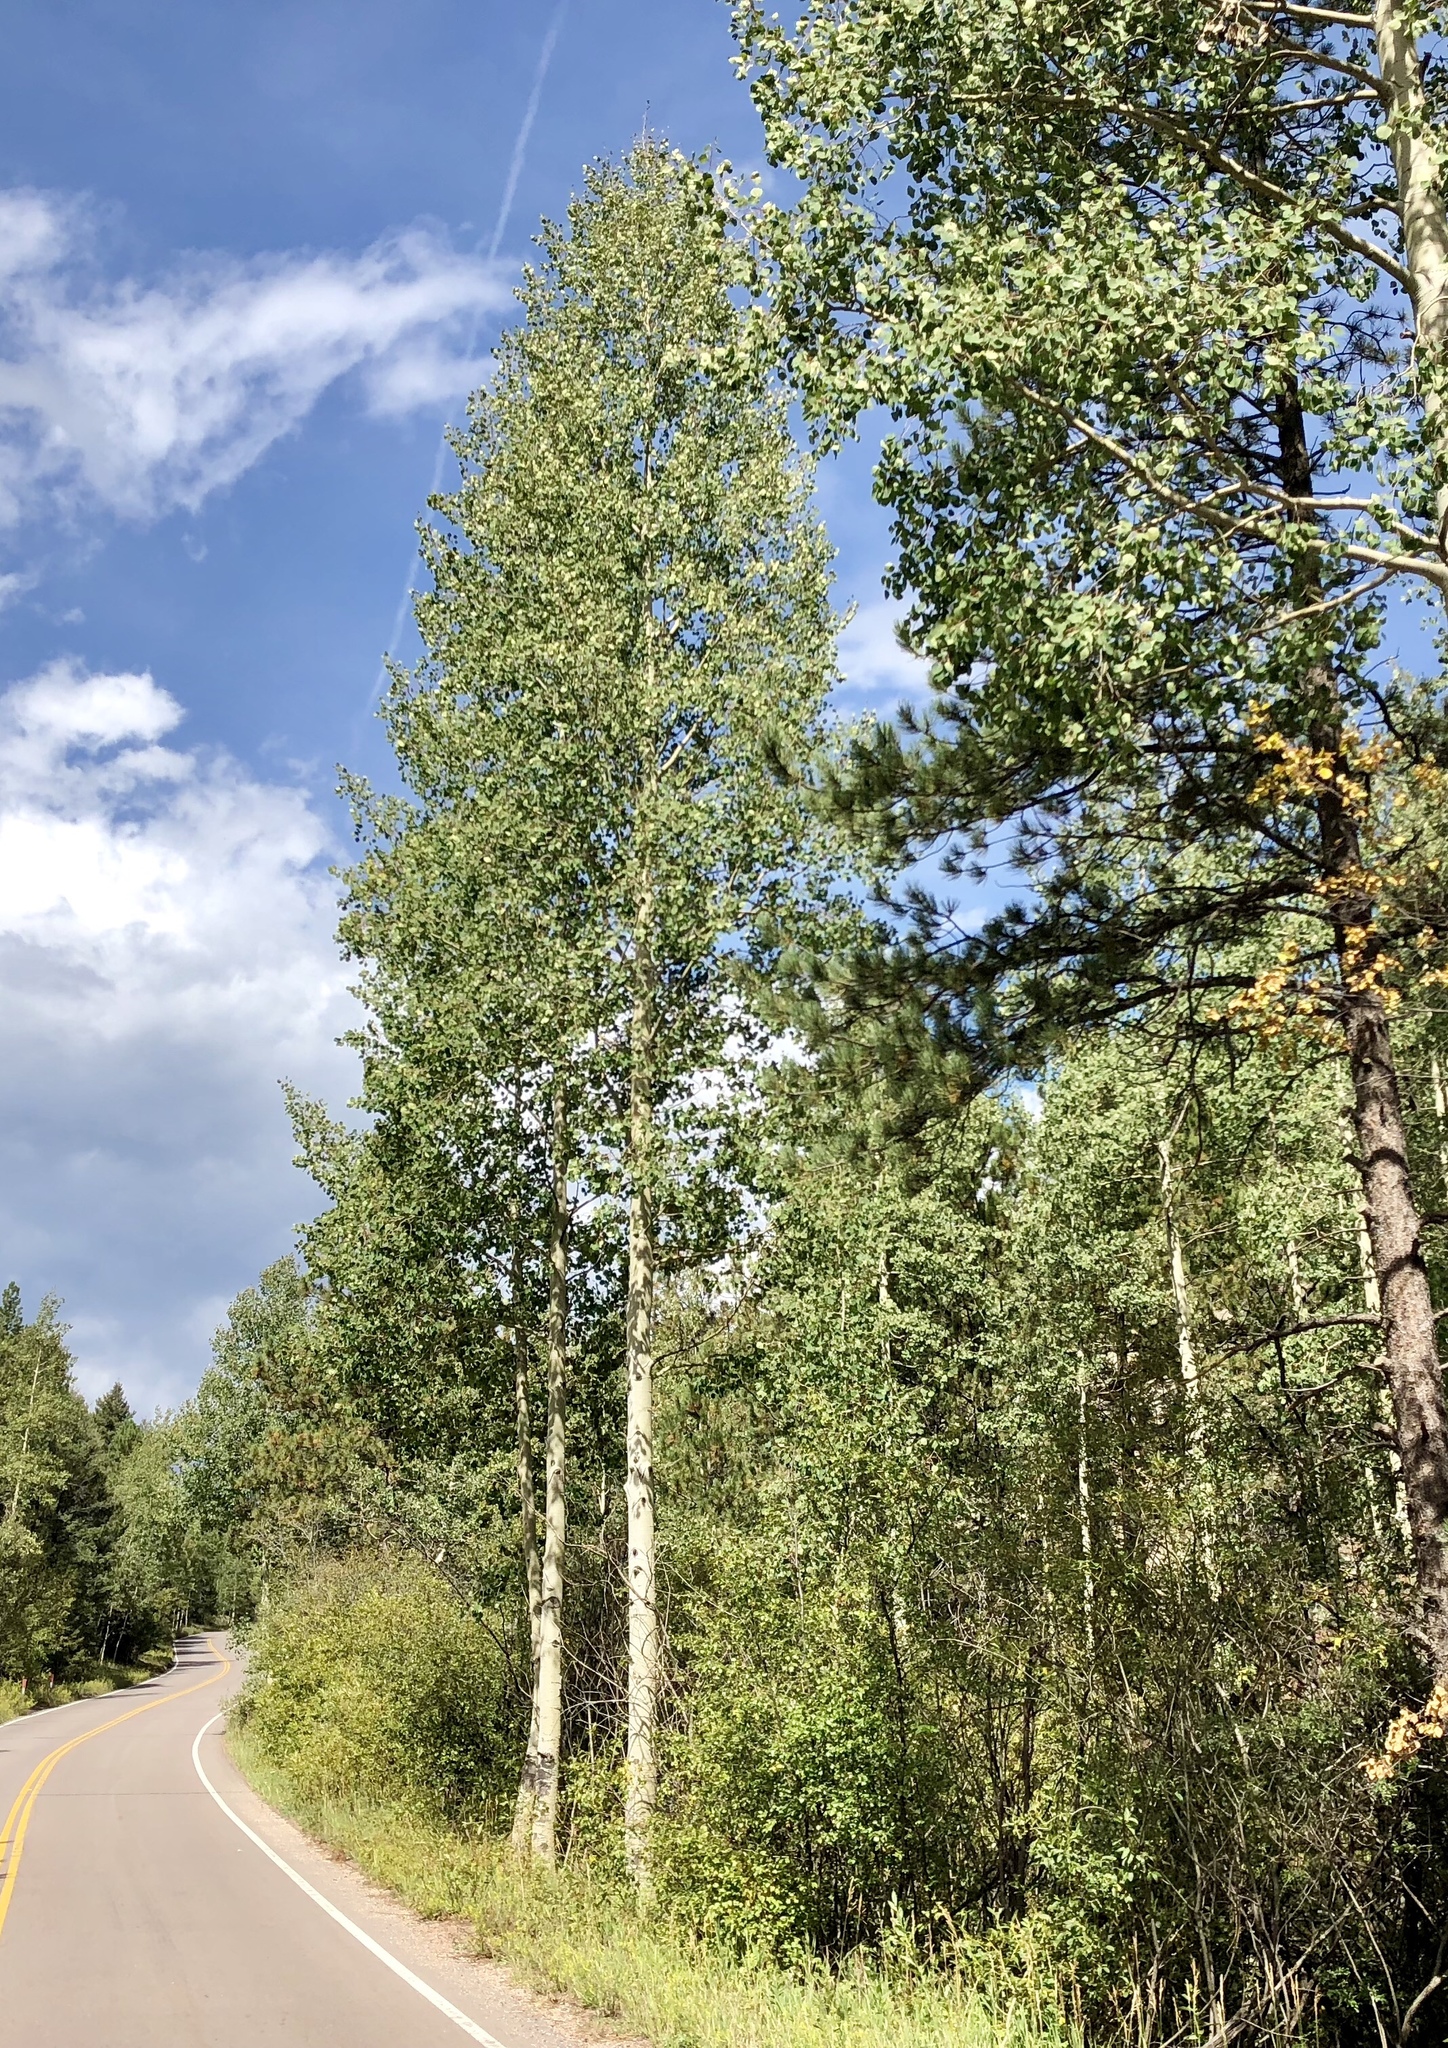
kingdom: Plantae
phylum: Tracheophyta
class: Magnoliopsida
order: Malpighiales
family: Salicaceae
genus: Populus
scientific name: Populus tremuloides
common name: Quaking aspen
